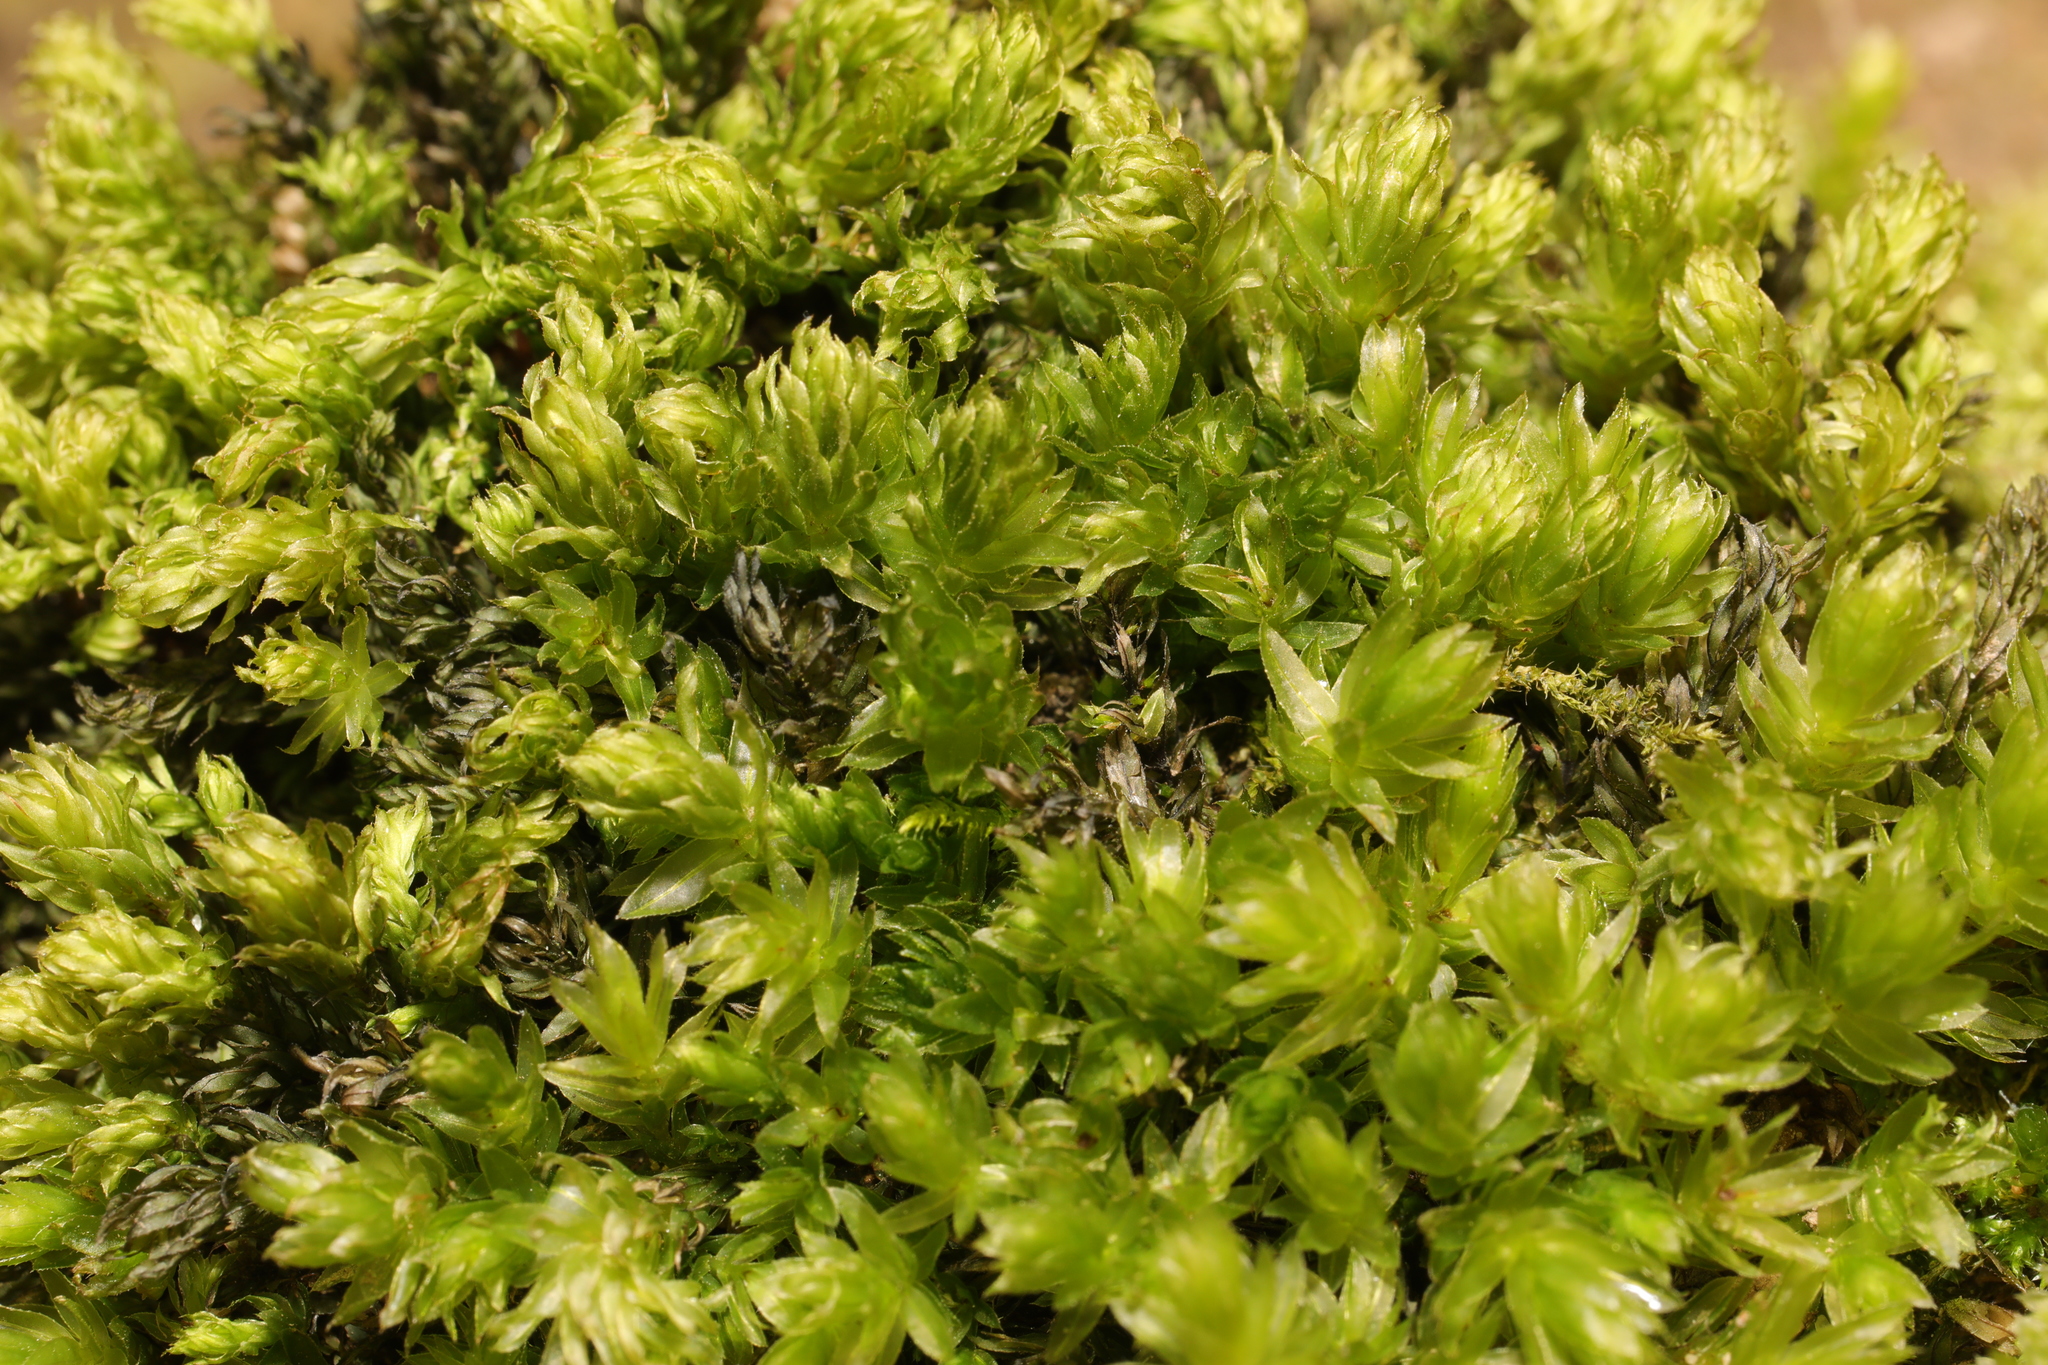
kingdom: Plantae
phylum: Bryophyta
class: Bryopsida
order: Bryales
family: Mniaceae
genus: Mnium
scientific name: Mnium hornum
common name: Swan's-neck leafy moss
